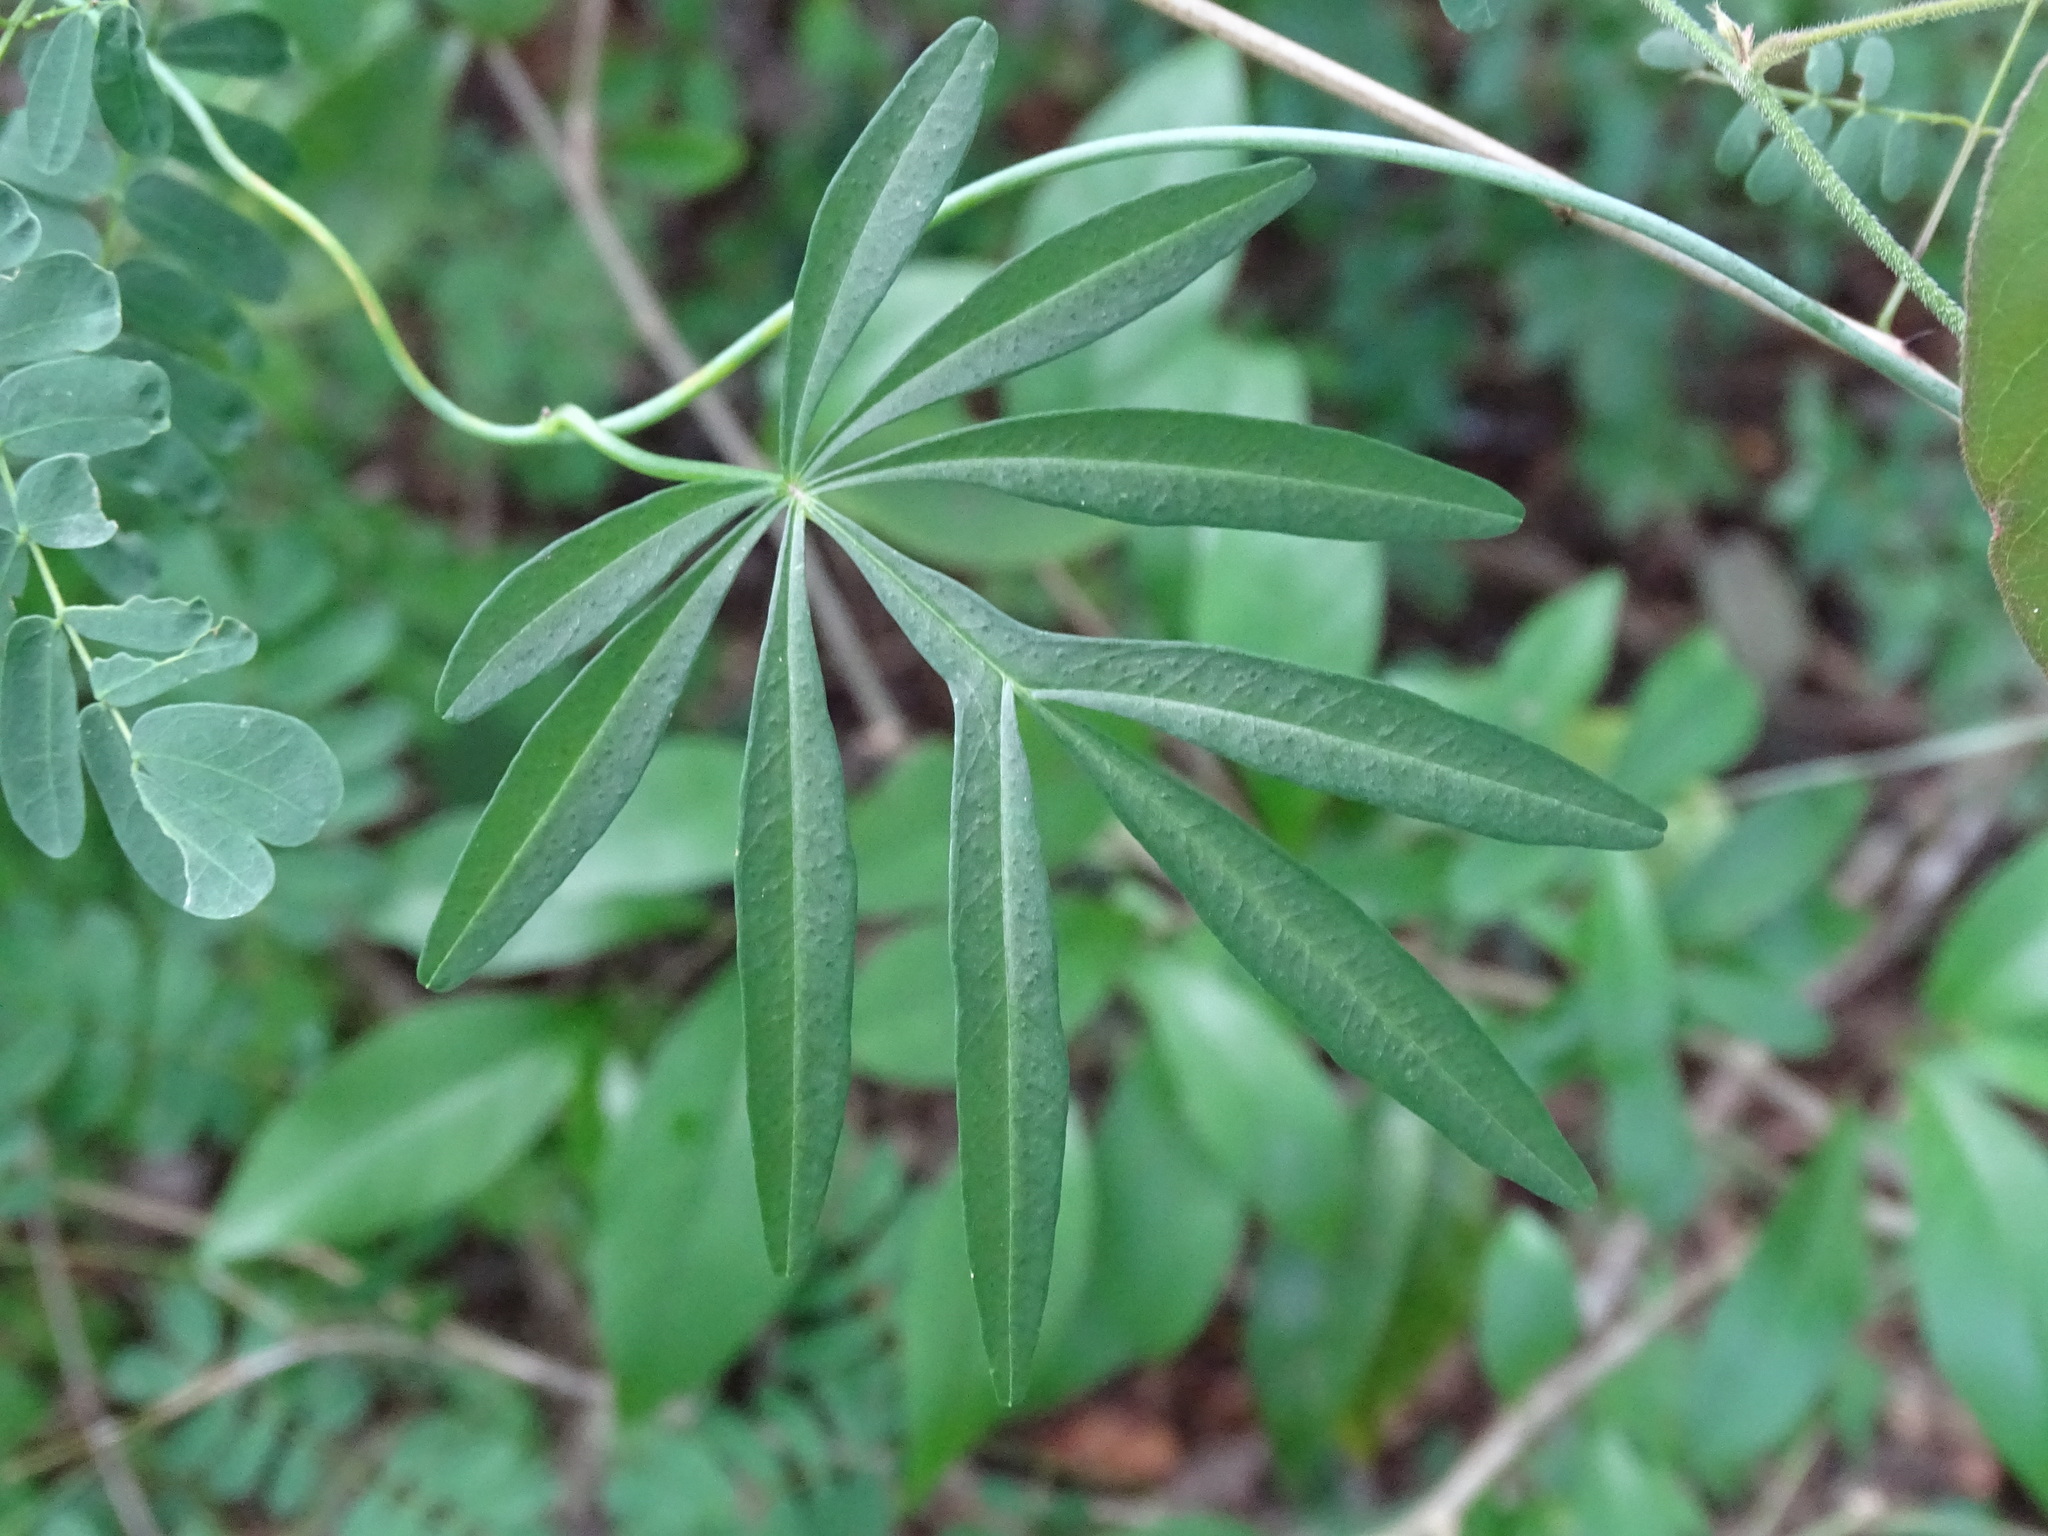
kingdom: Plantae
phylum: Tracheophyta
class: Magnoliopsida
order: Solanales
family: Convolvulaceae
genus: Ipomoea
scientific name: Ipomoea heterodoxa
